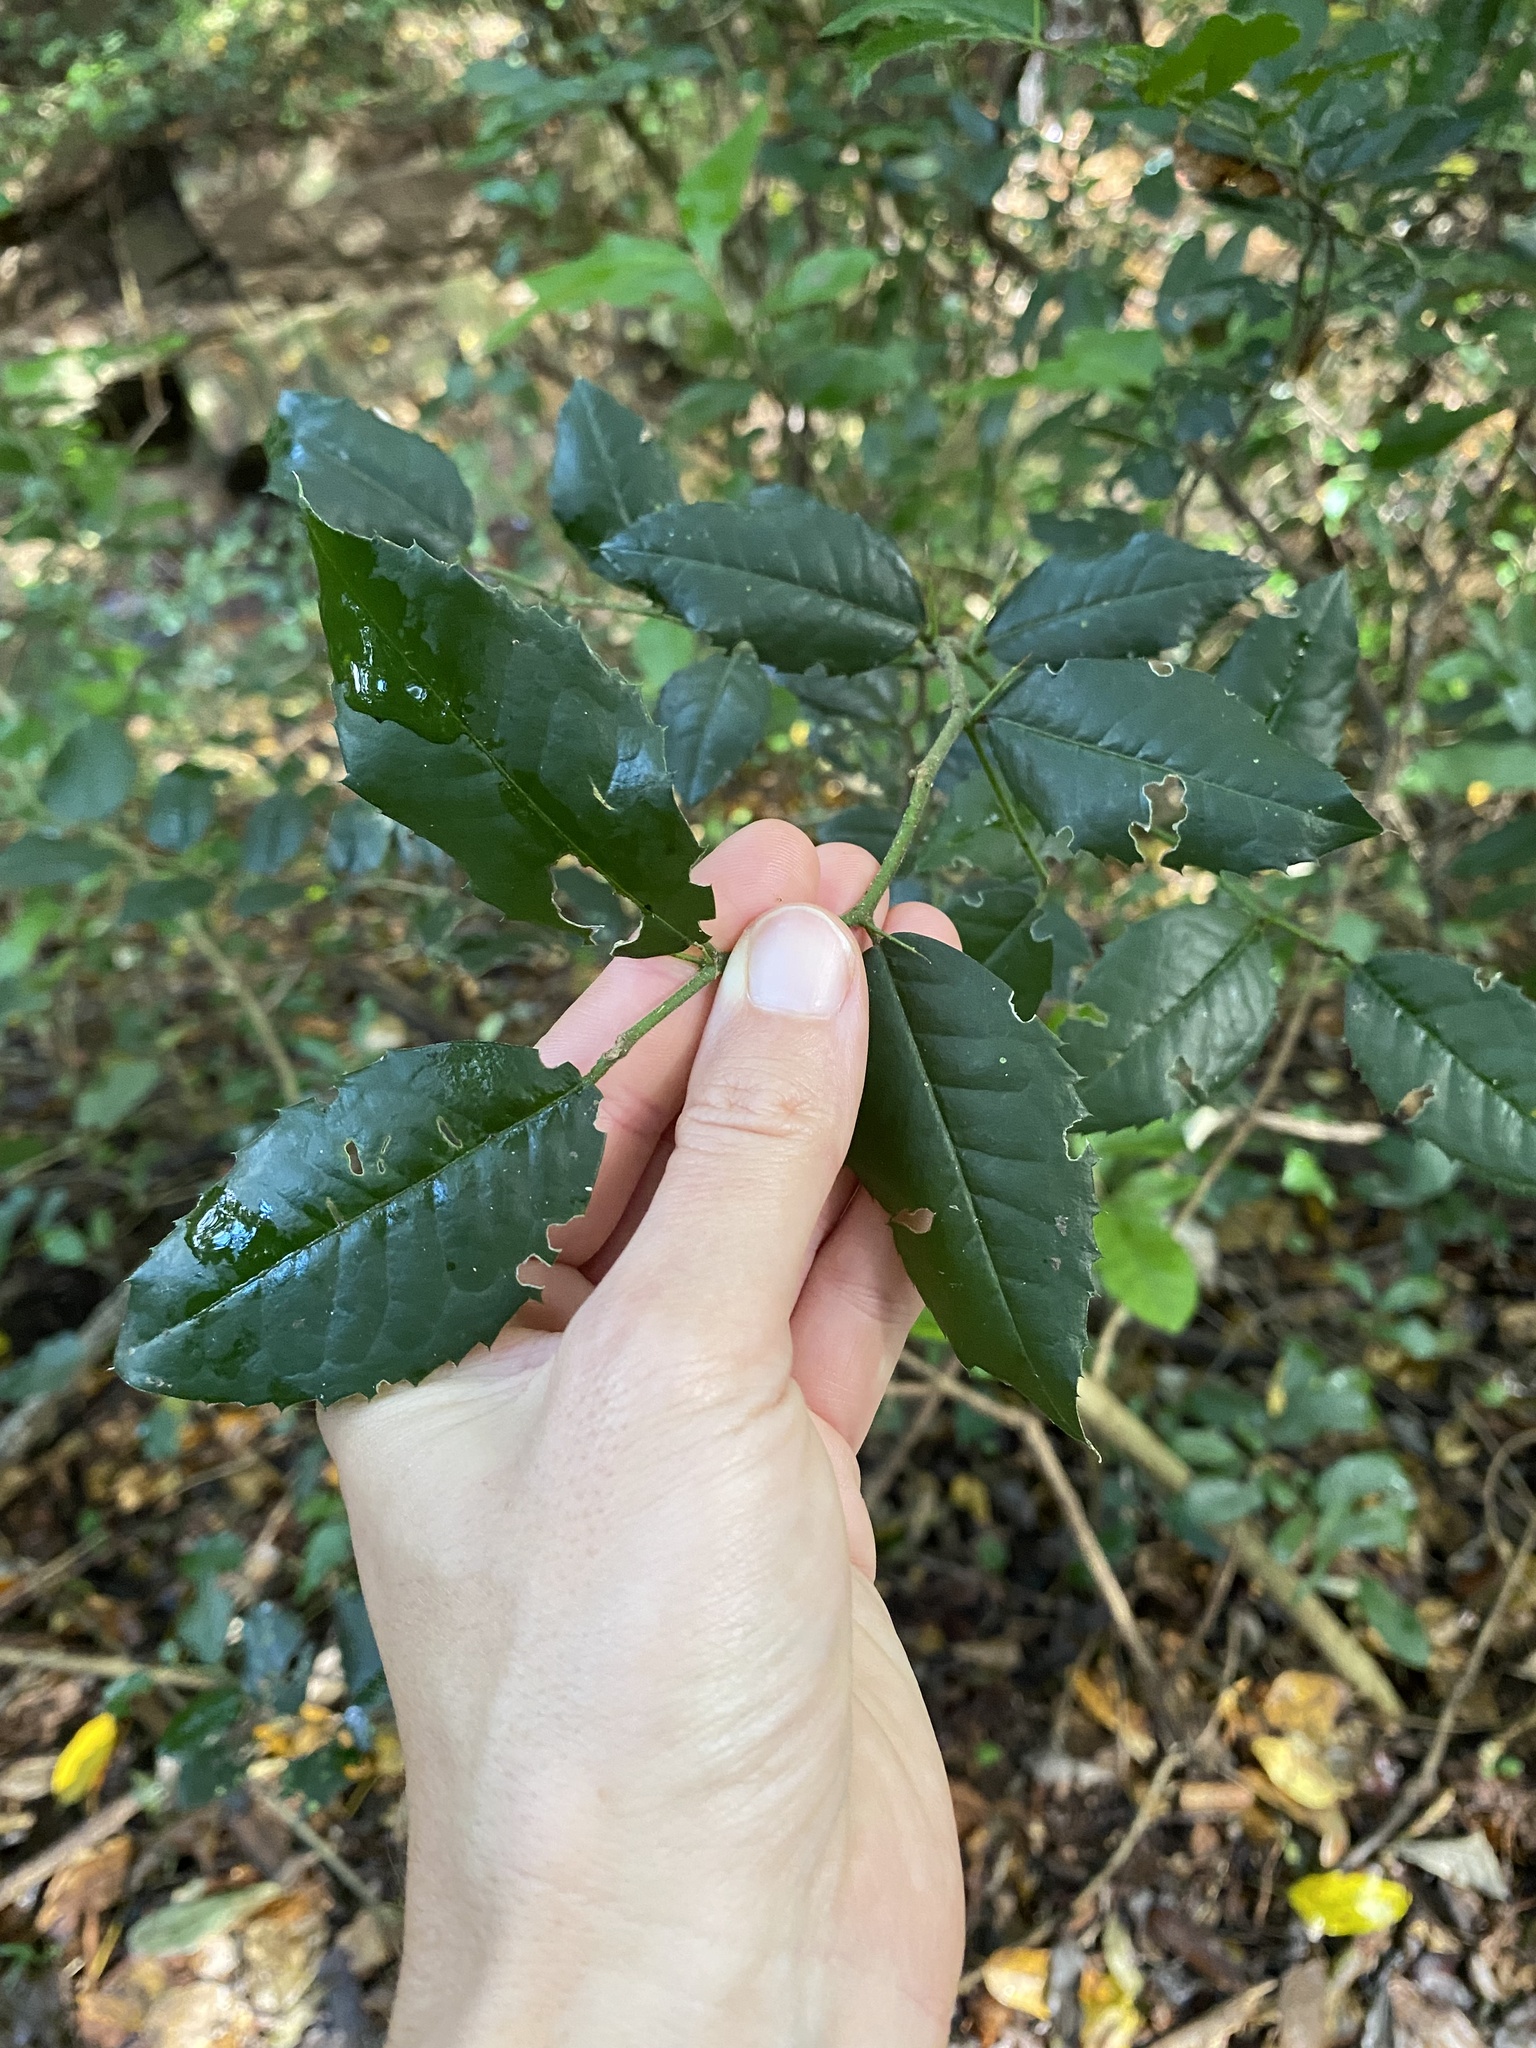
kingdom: Plantae
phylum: Tracheophyta
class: Magnoliopsida
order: Rosales
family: Cannabaceae
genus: Chaetachme
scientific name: Chaetachme aristata
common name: Thorny elm
